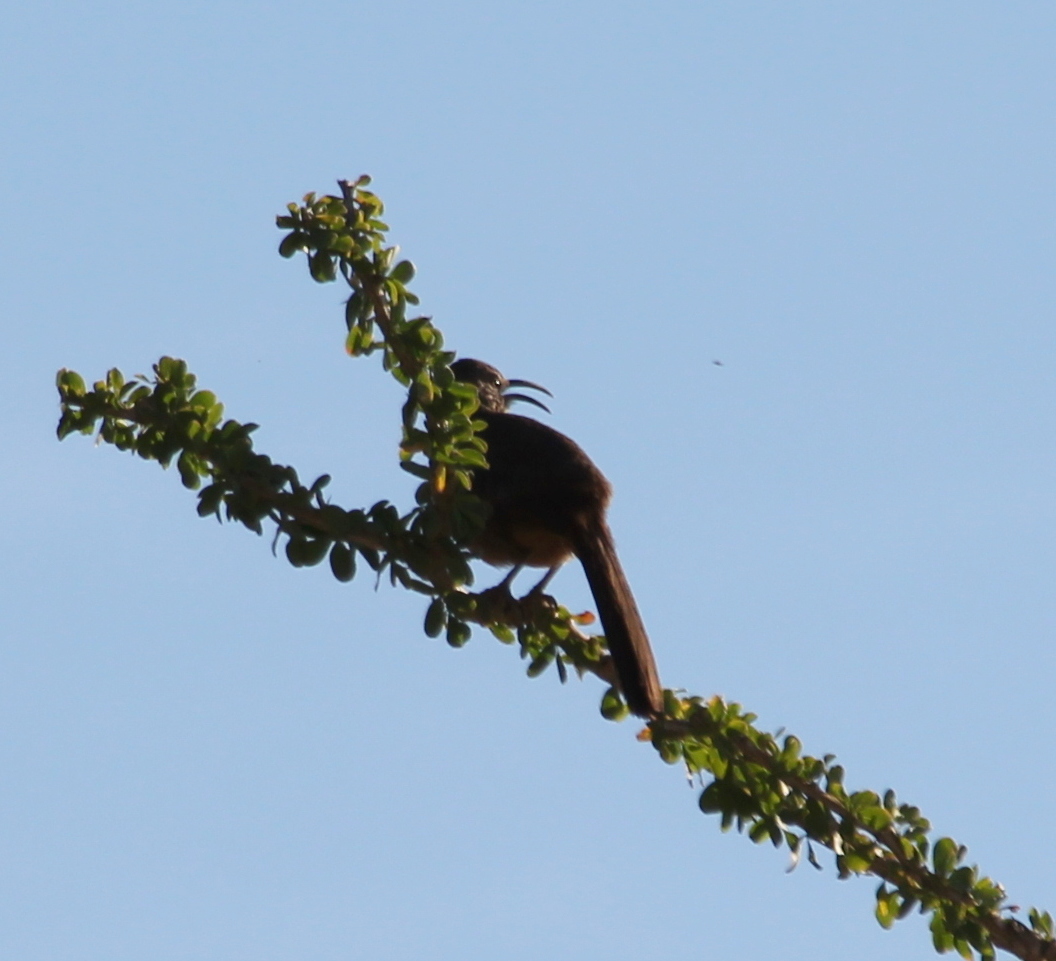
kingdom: Animalia
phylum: Chordata
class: Aves
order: Passeriformes
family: Mimidae
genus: Toxostoma
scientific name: Toxostoma redivivum
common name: California thrasher
